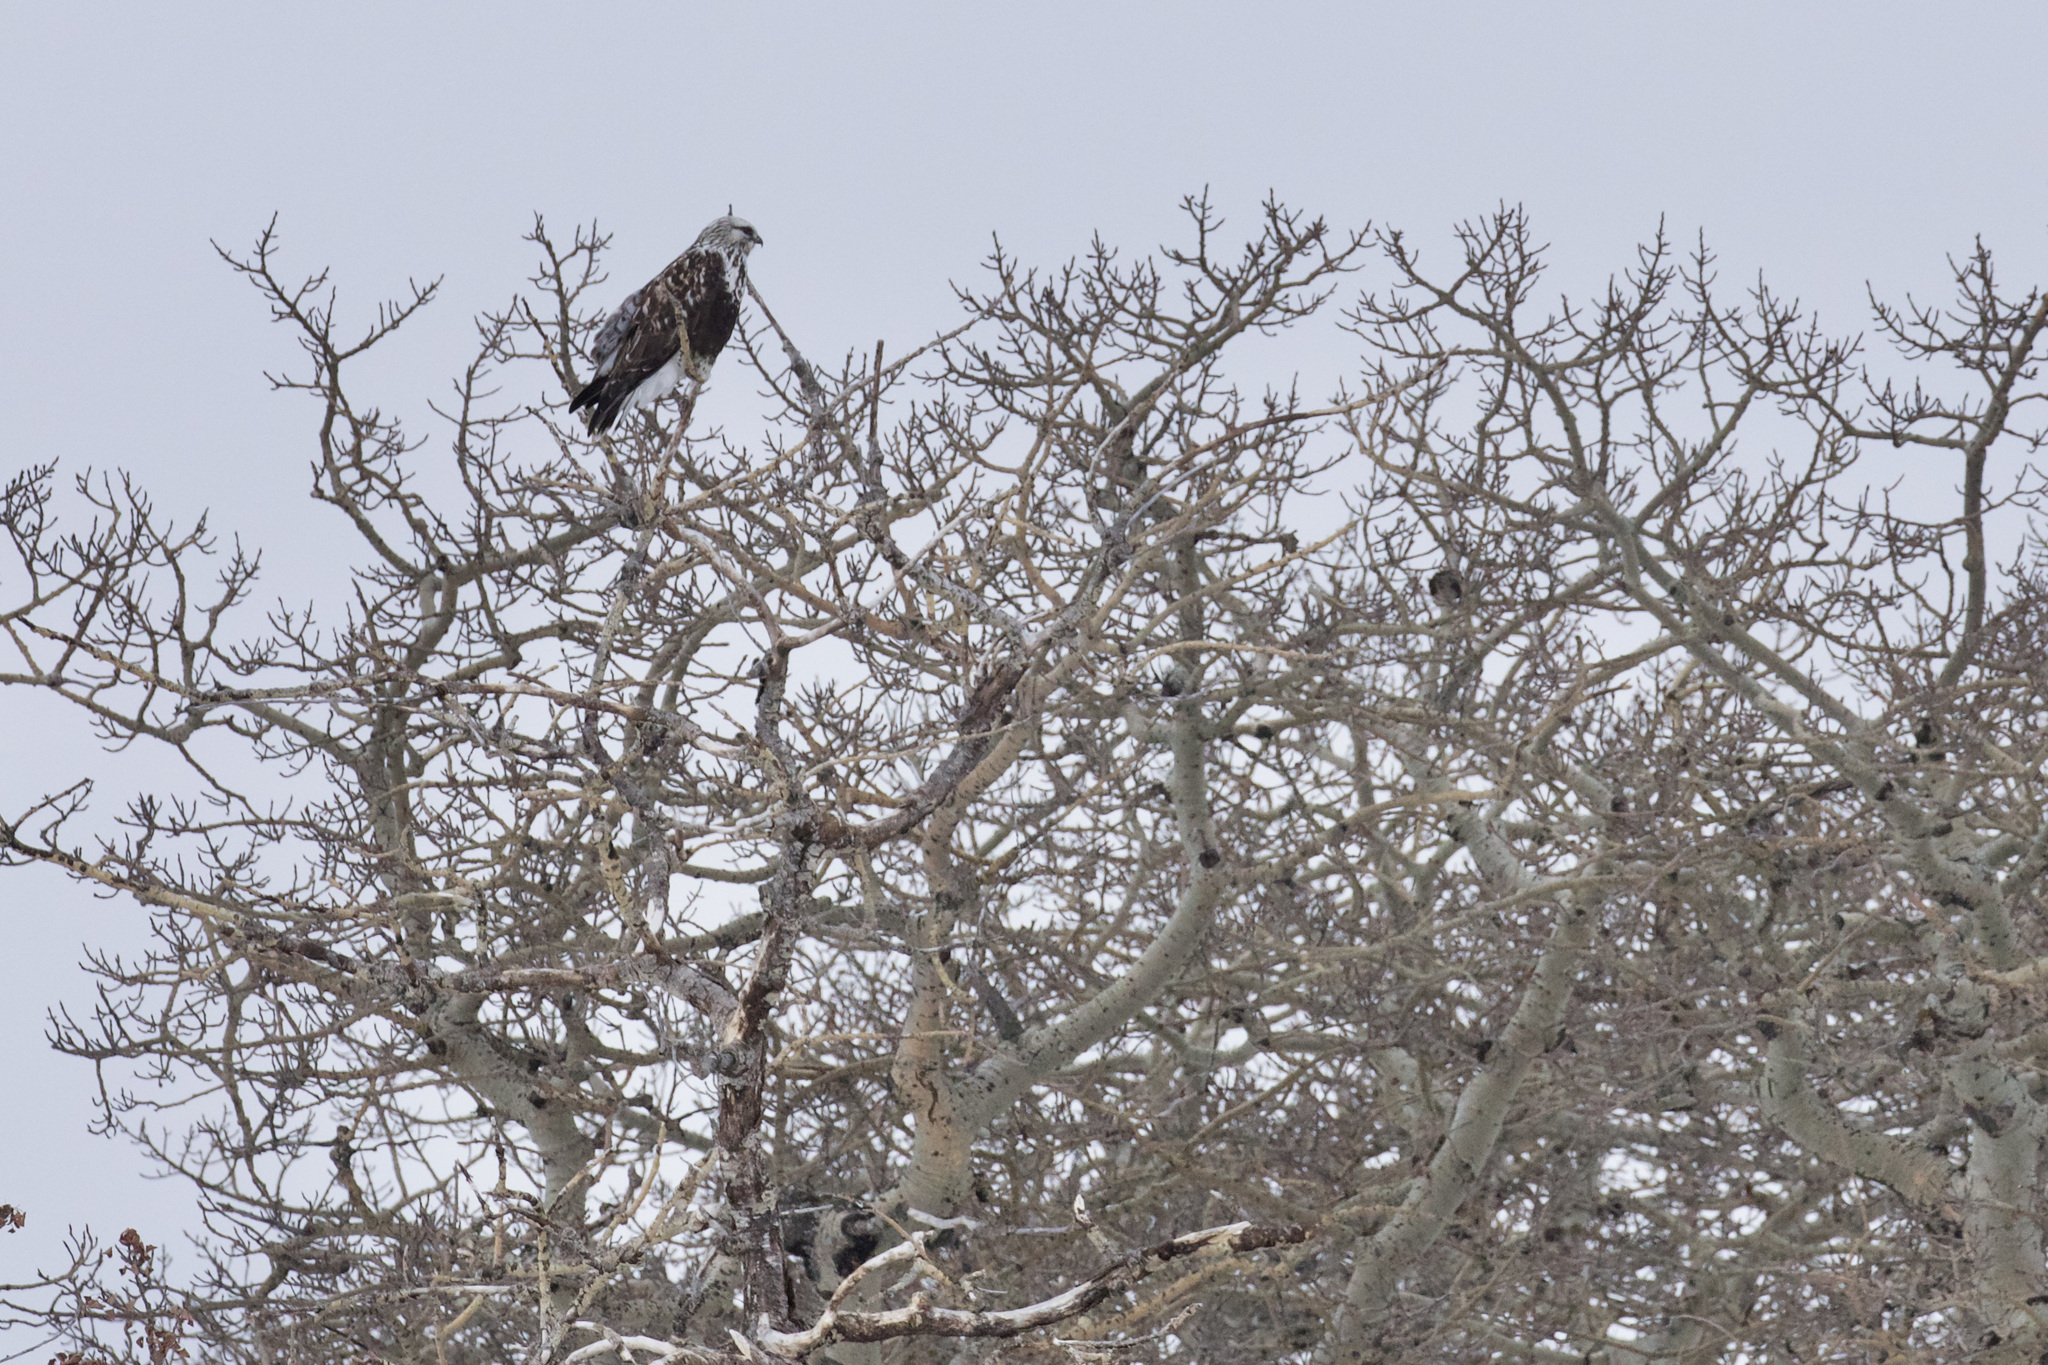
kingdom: Animalia
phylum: Chordata
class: Aves
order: Accipitriformes
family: Accipitridae
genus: Buteo
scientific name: Buteo lagopus
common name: Rough-legged buzzard
